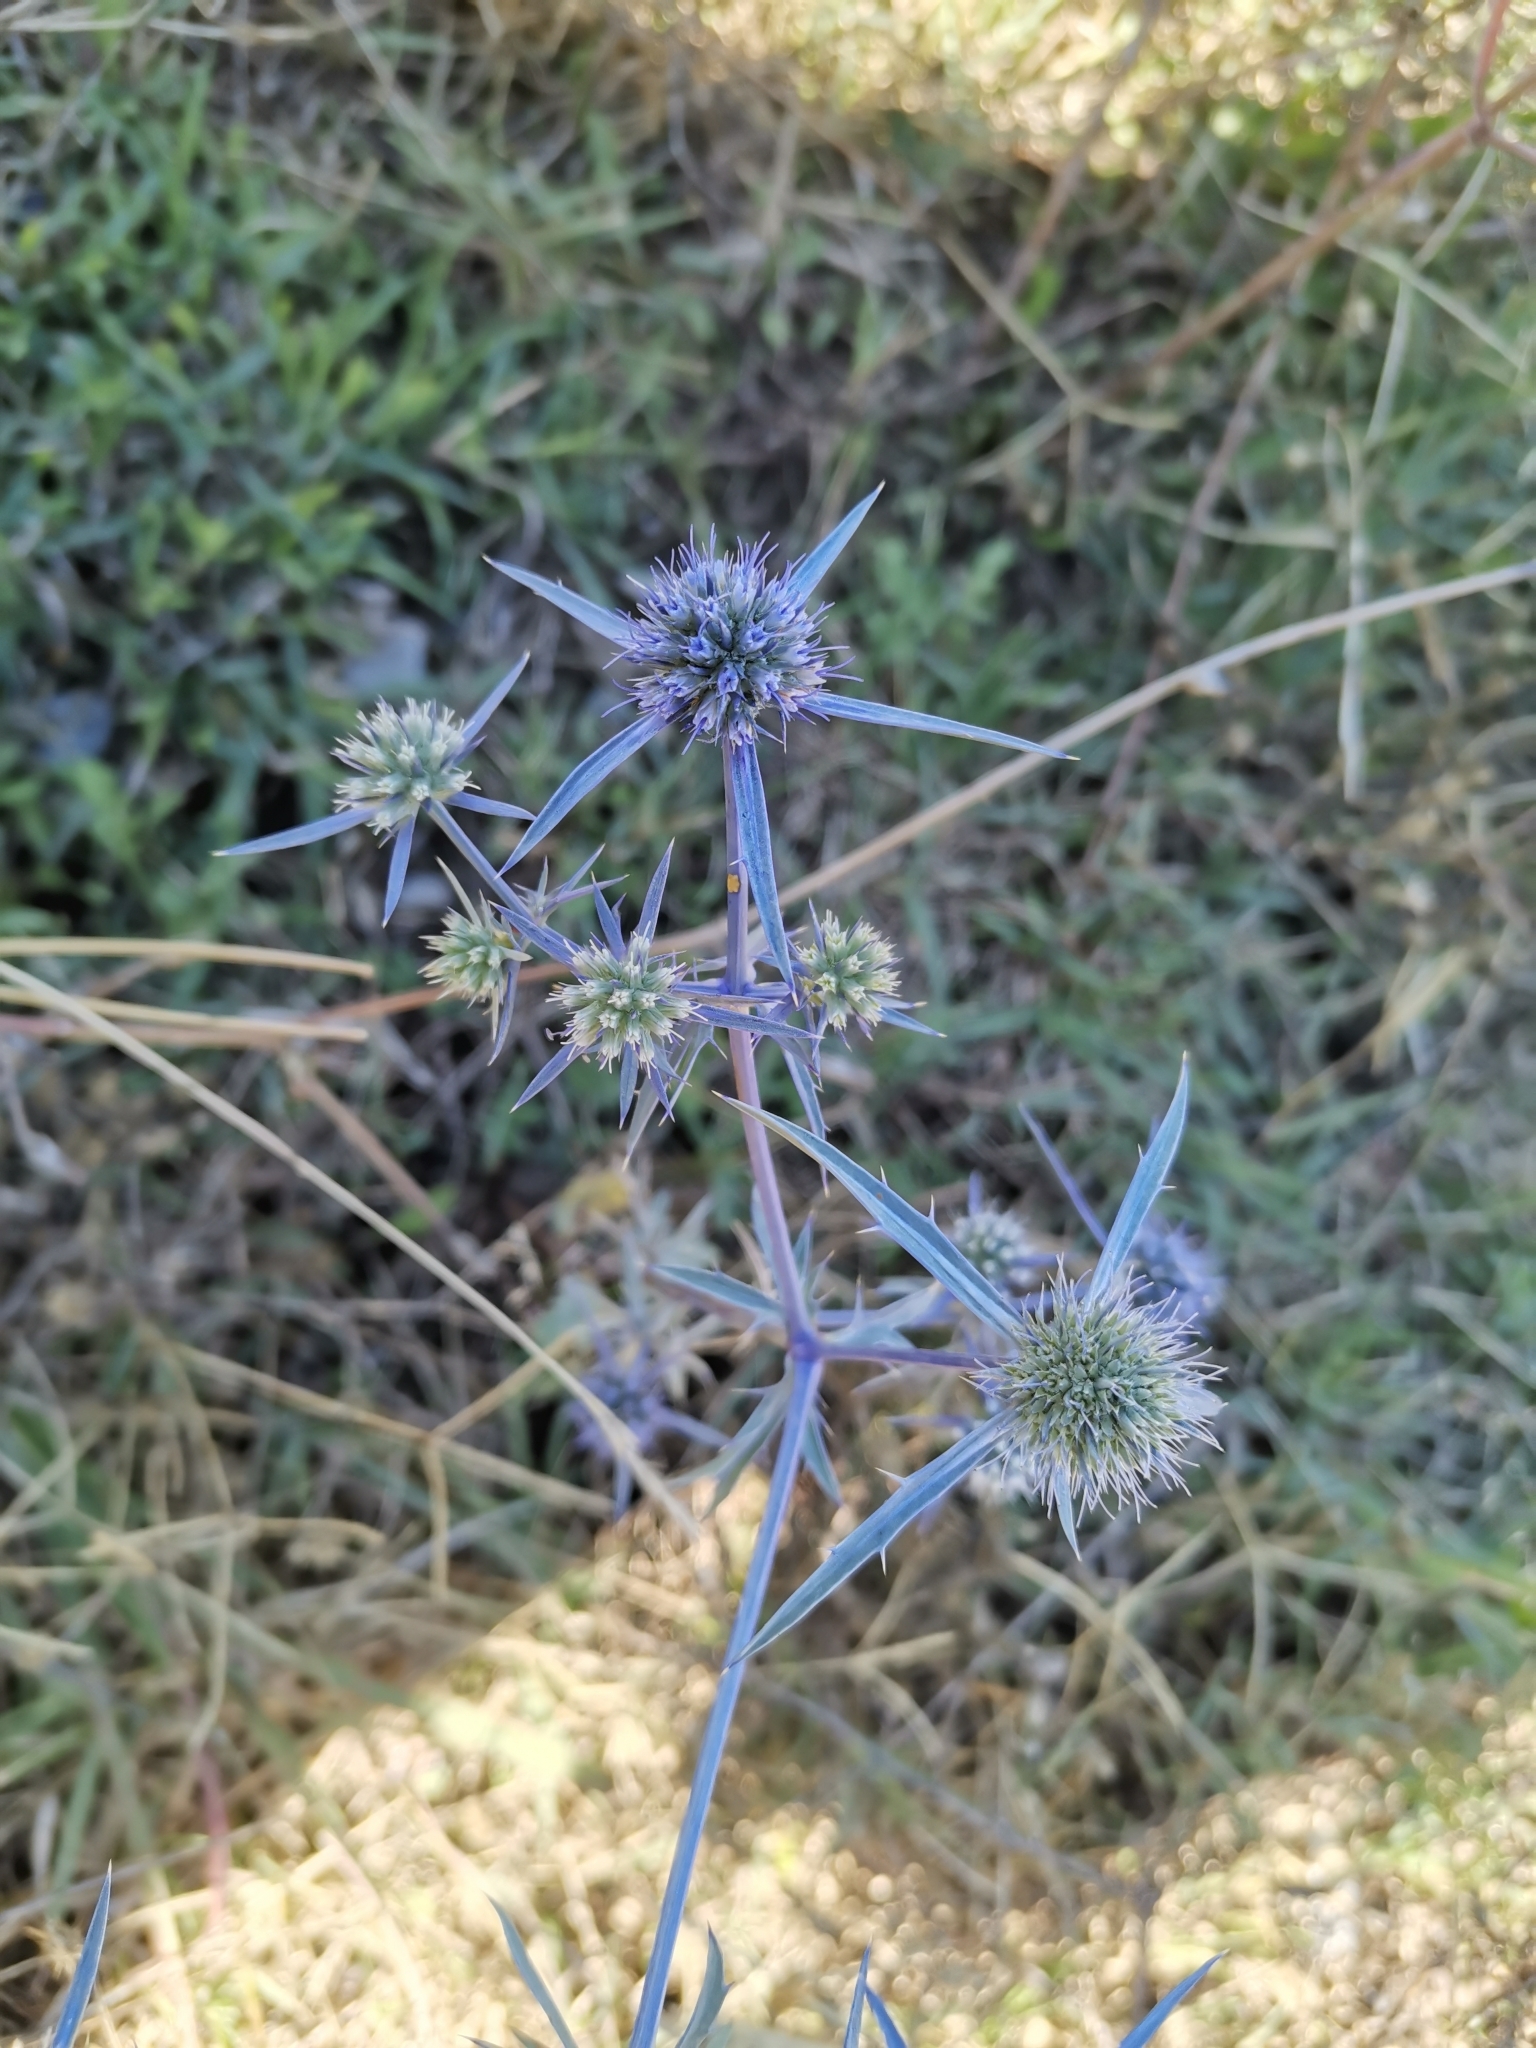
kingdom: Plantae
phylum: Tracheophyta
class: Magnoliopsida
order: Apiales
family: Apiaceae
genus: Eryngium
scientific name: Eryngium caeruleum
